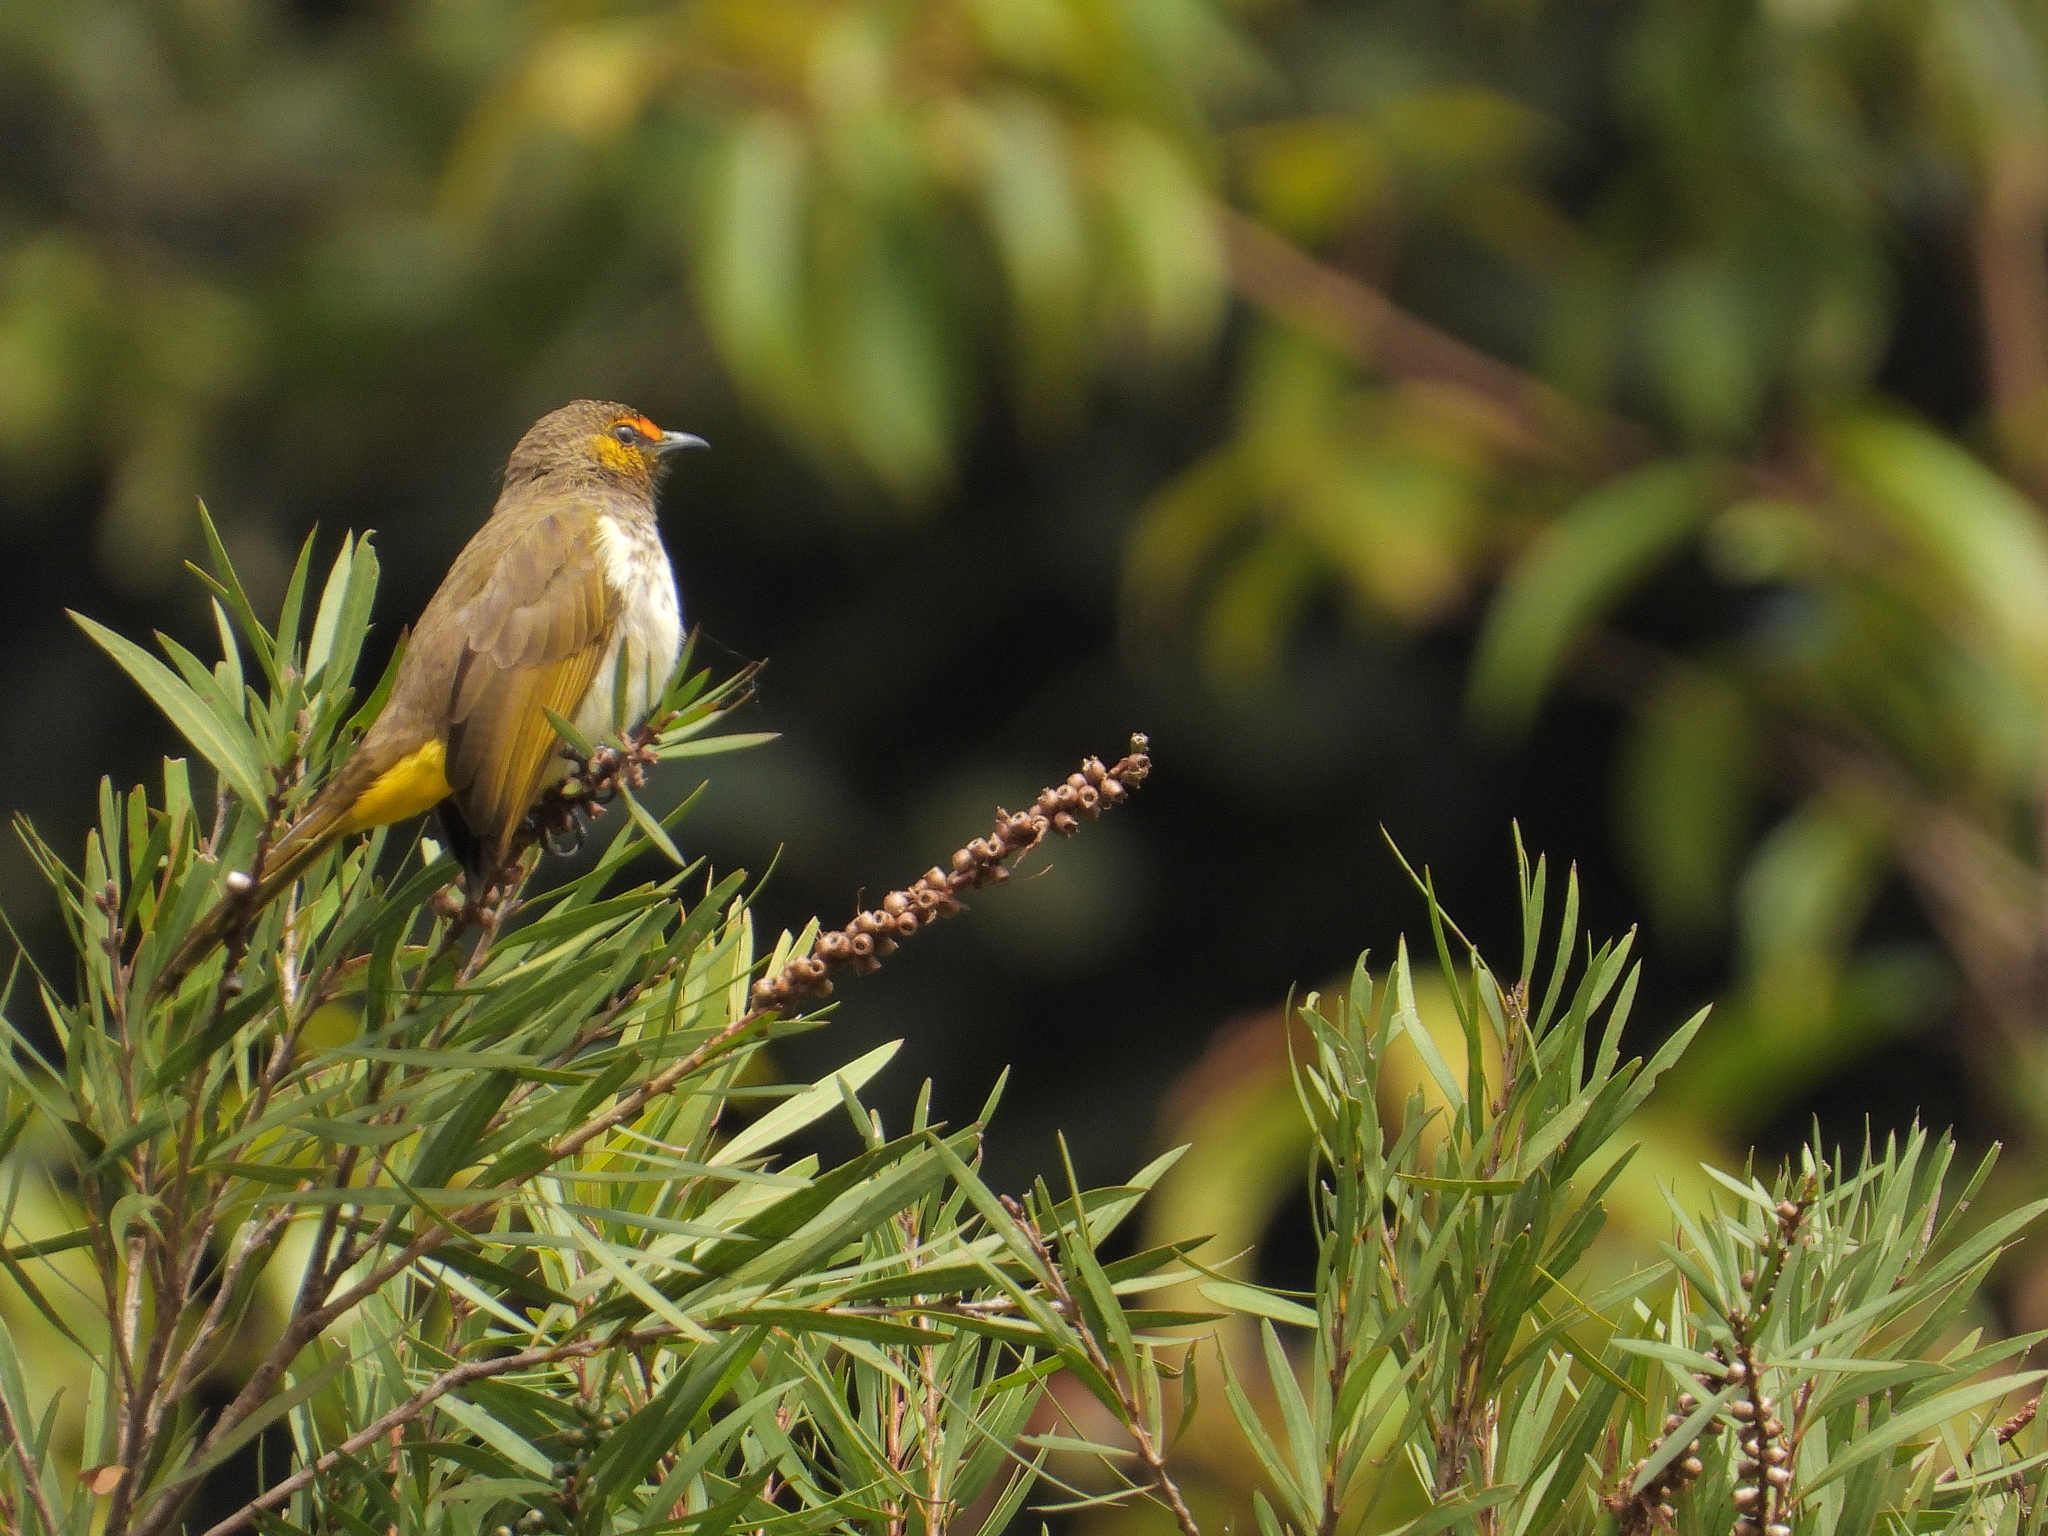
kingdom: Animalia
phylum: Chordata
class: Aves
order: Passeriformes
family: Pycnonotidae
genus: Pycnonotus
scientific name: Pycnonotus bimaculatus
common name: Orange-spotted bulbul
